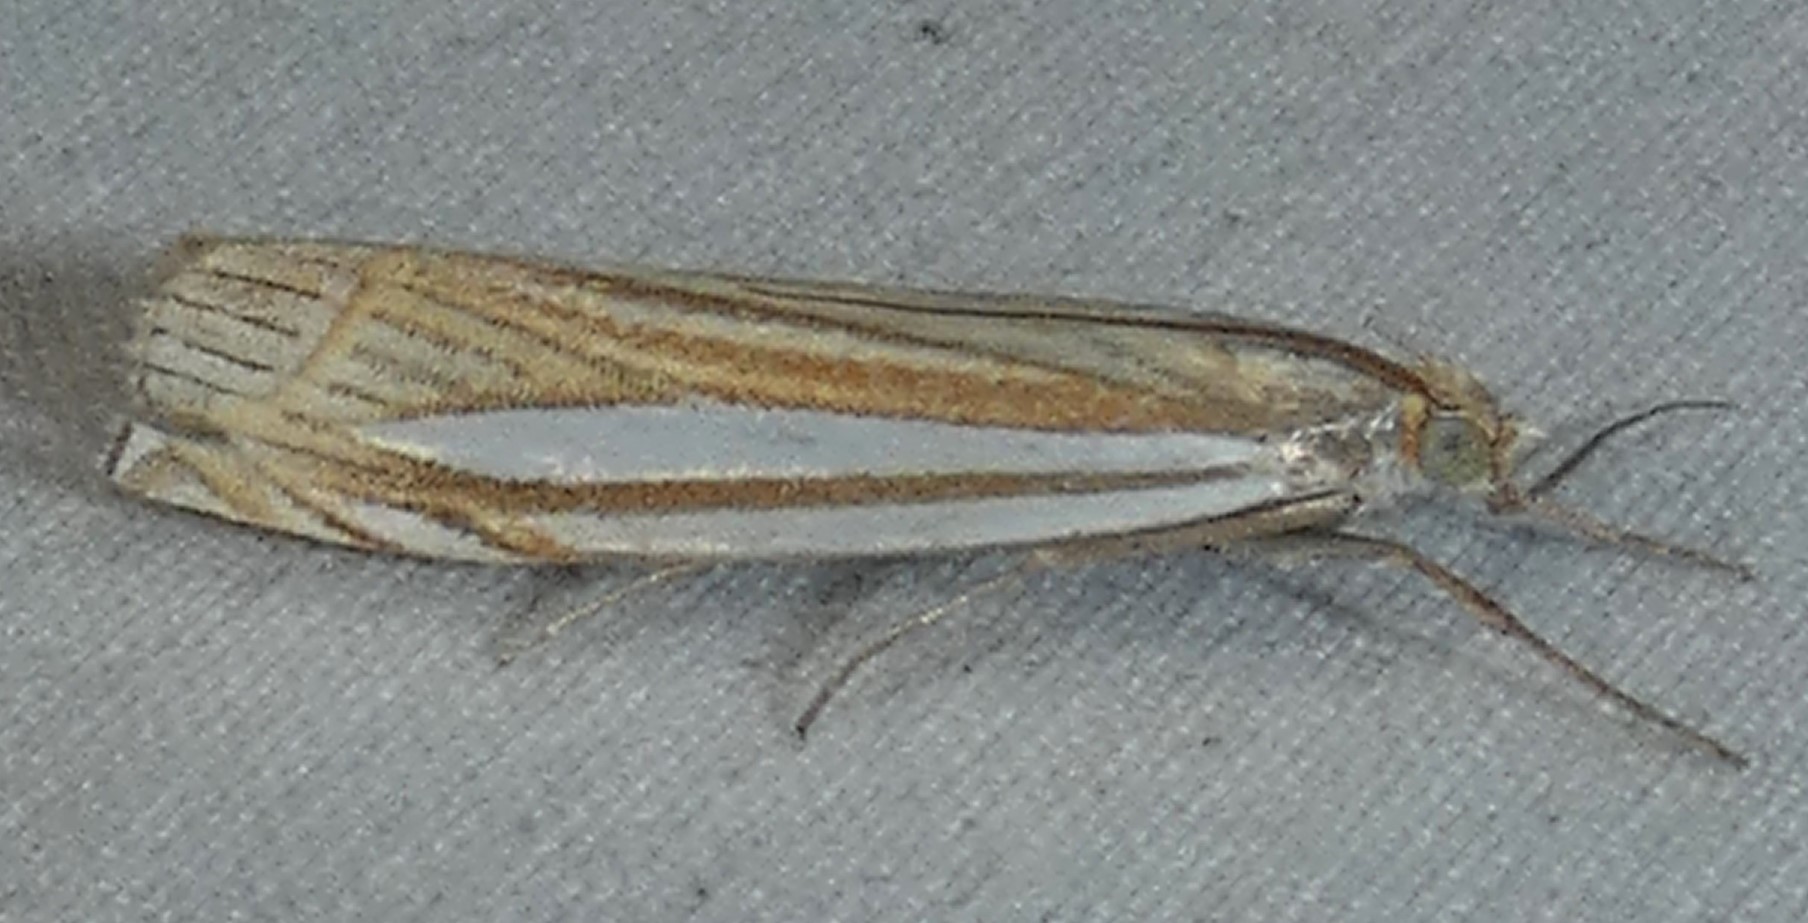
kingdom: Animalia
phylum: Arthropoda
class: Insecta
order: Lepidoptera
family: Crambidae
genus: Crambus
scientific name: Crambus laqueatellus
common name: Eastern grass-veneer
